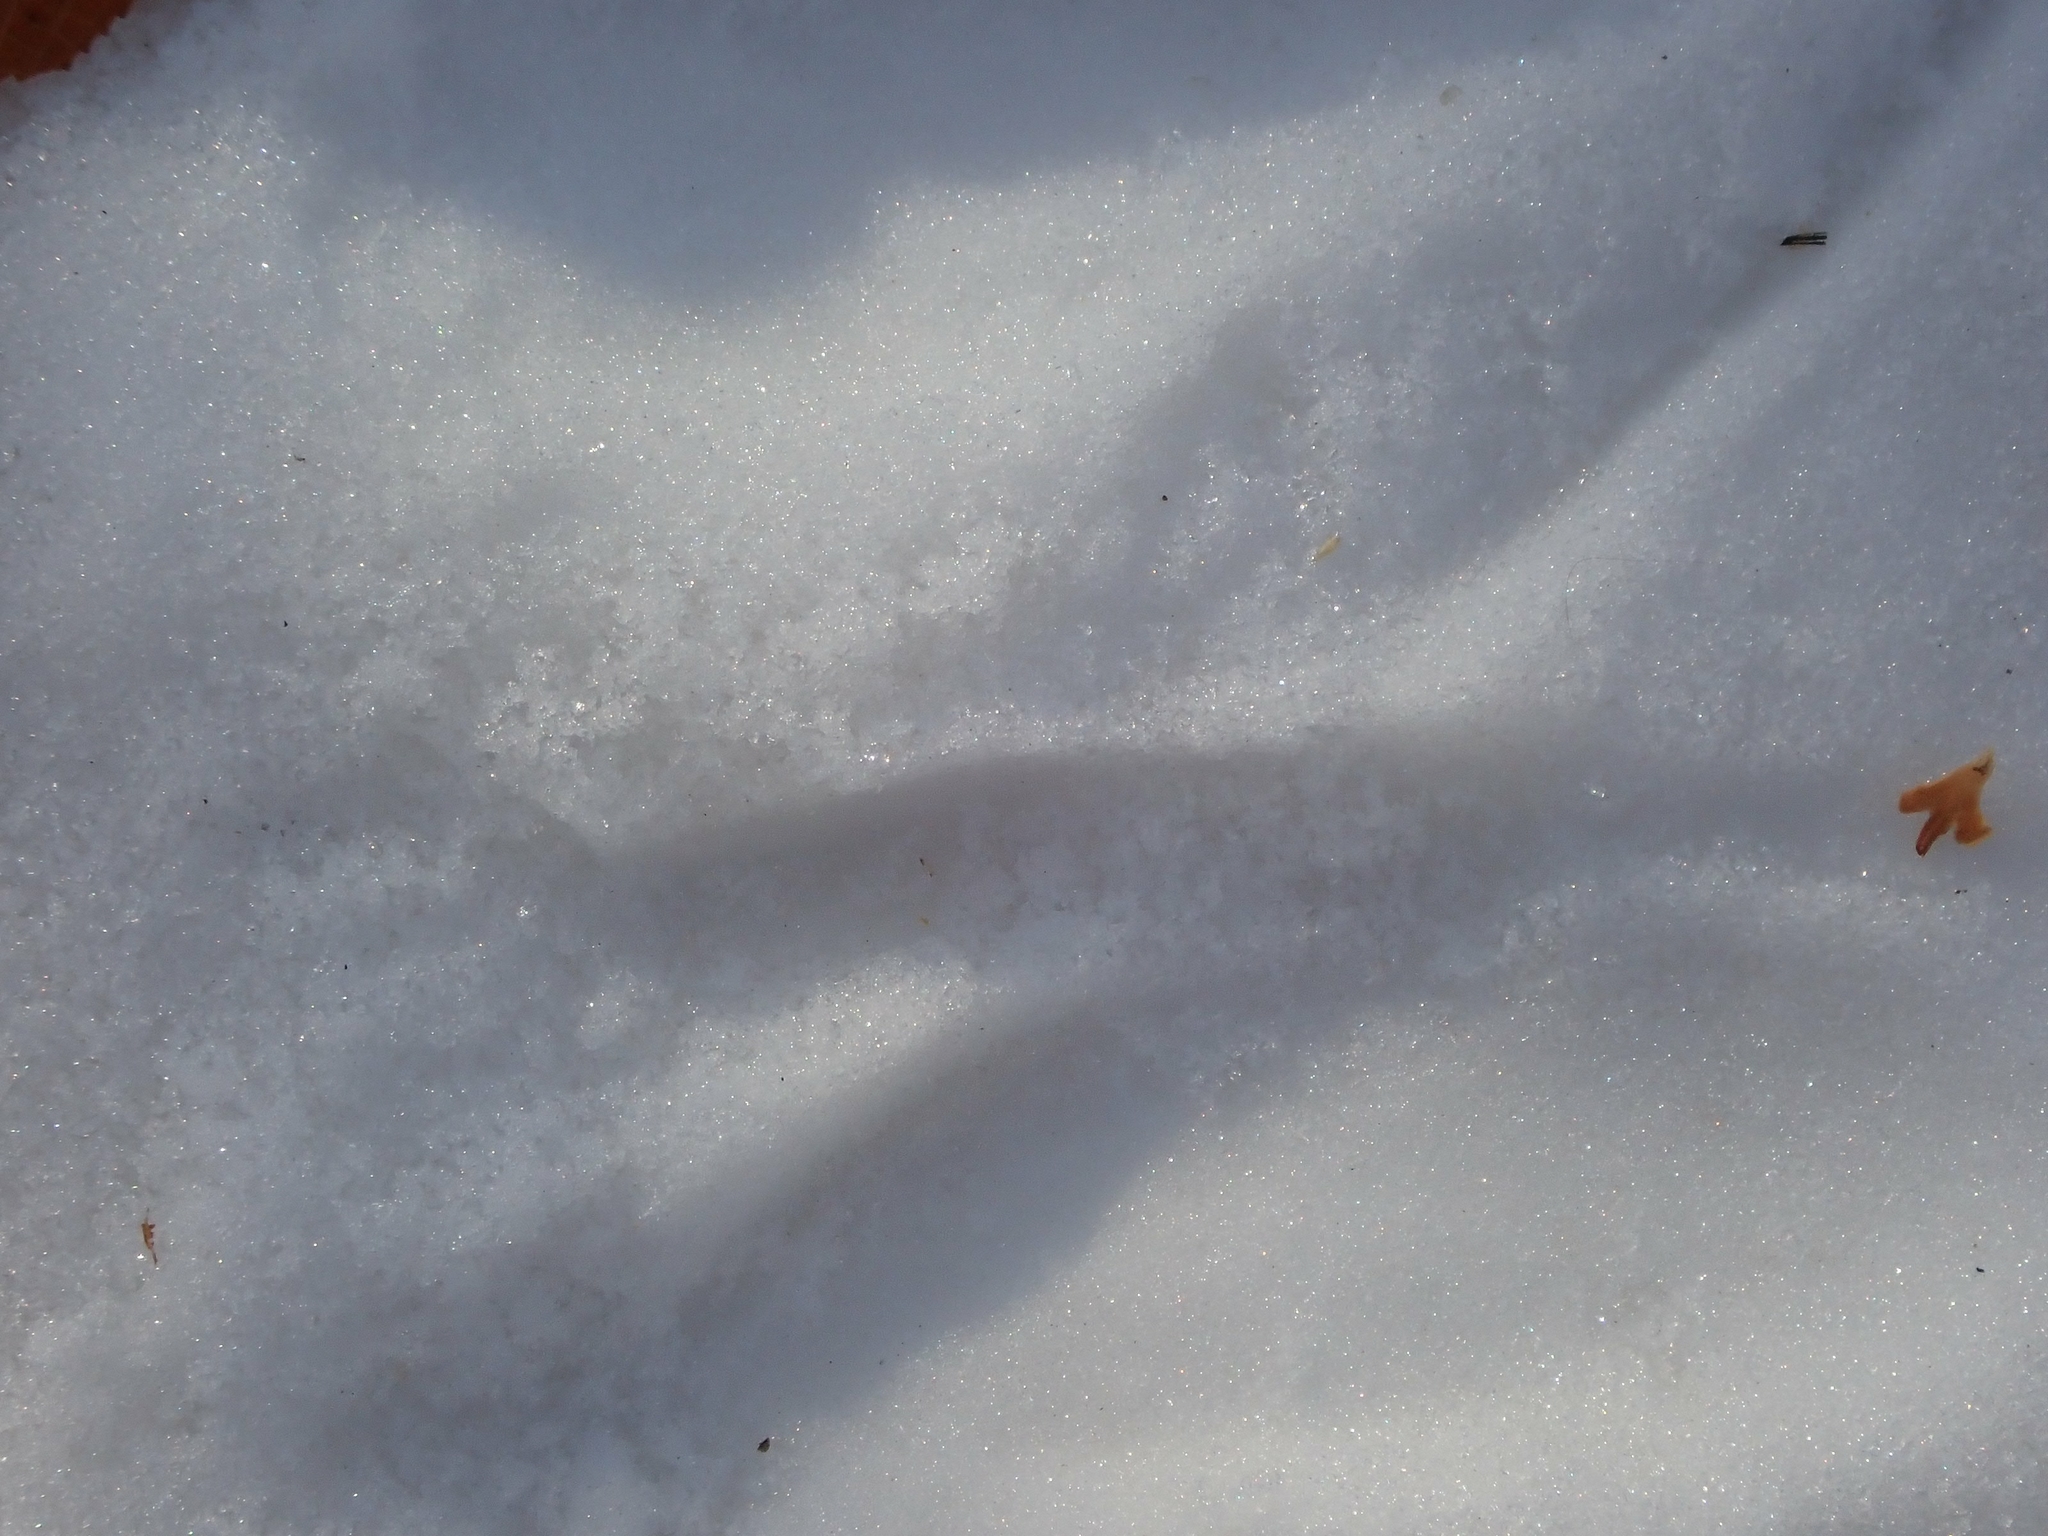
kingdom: Animalia
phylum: Chordata
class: Mammalia
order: Artiodactyla
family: Cervidae
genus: Odocoileus
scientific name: Odocoileus virginianus
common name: White-tailed deer
